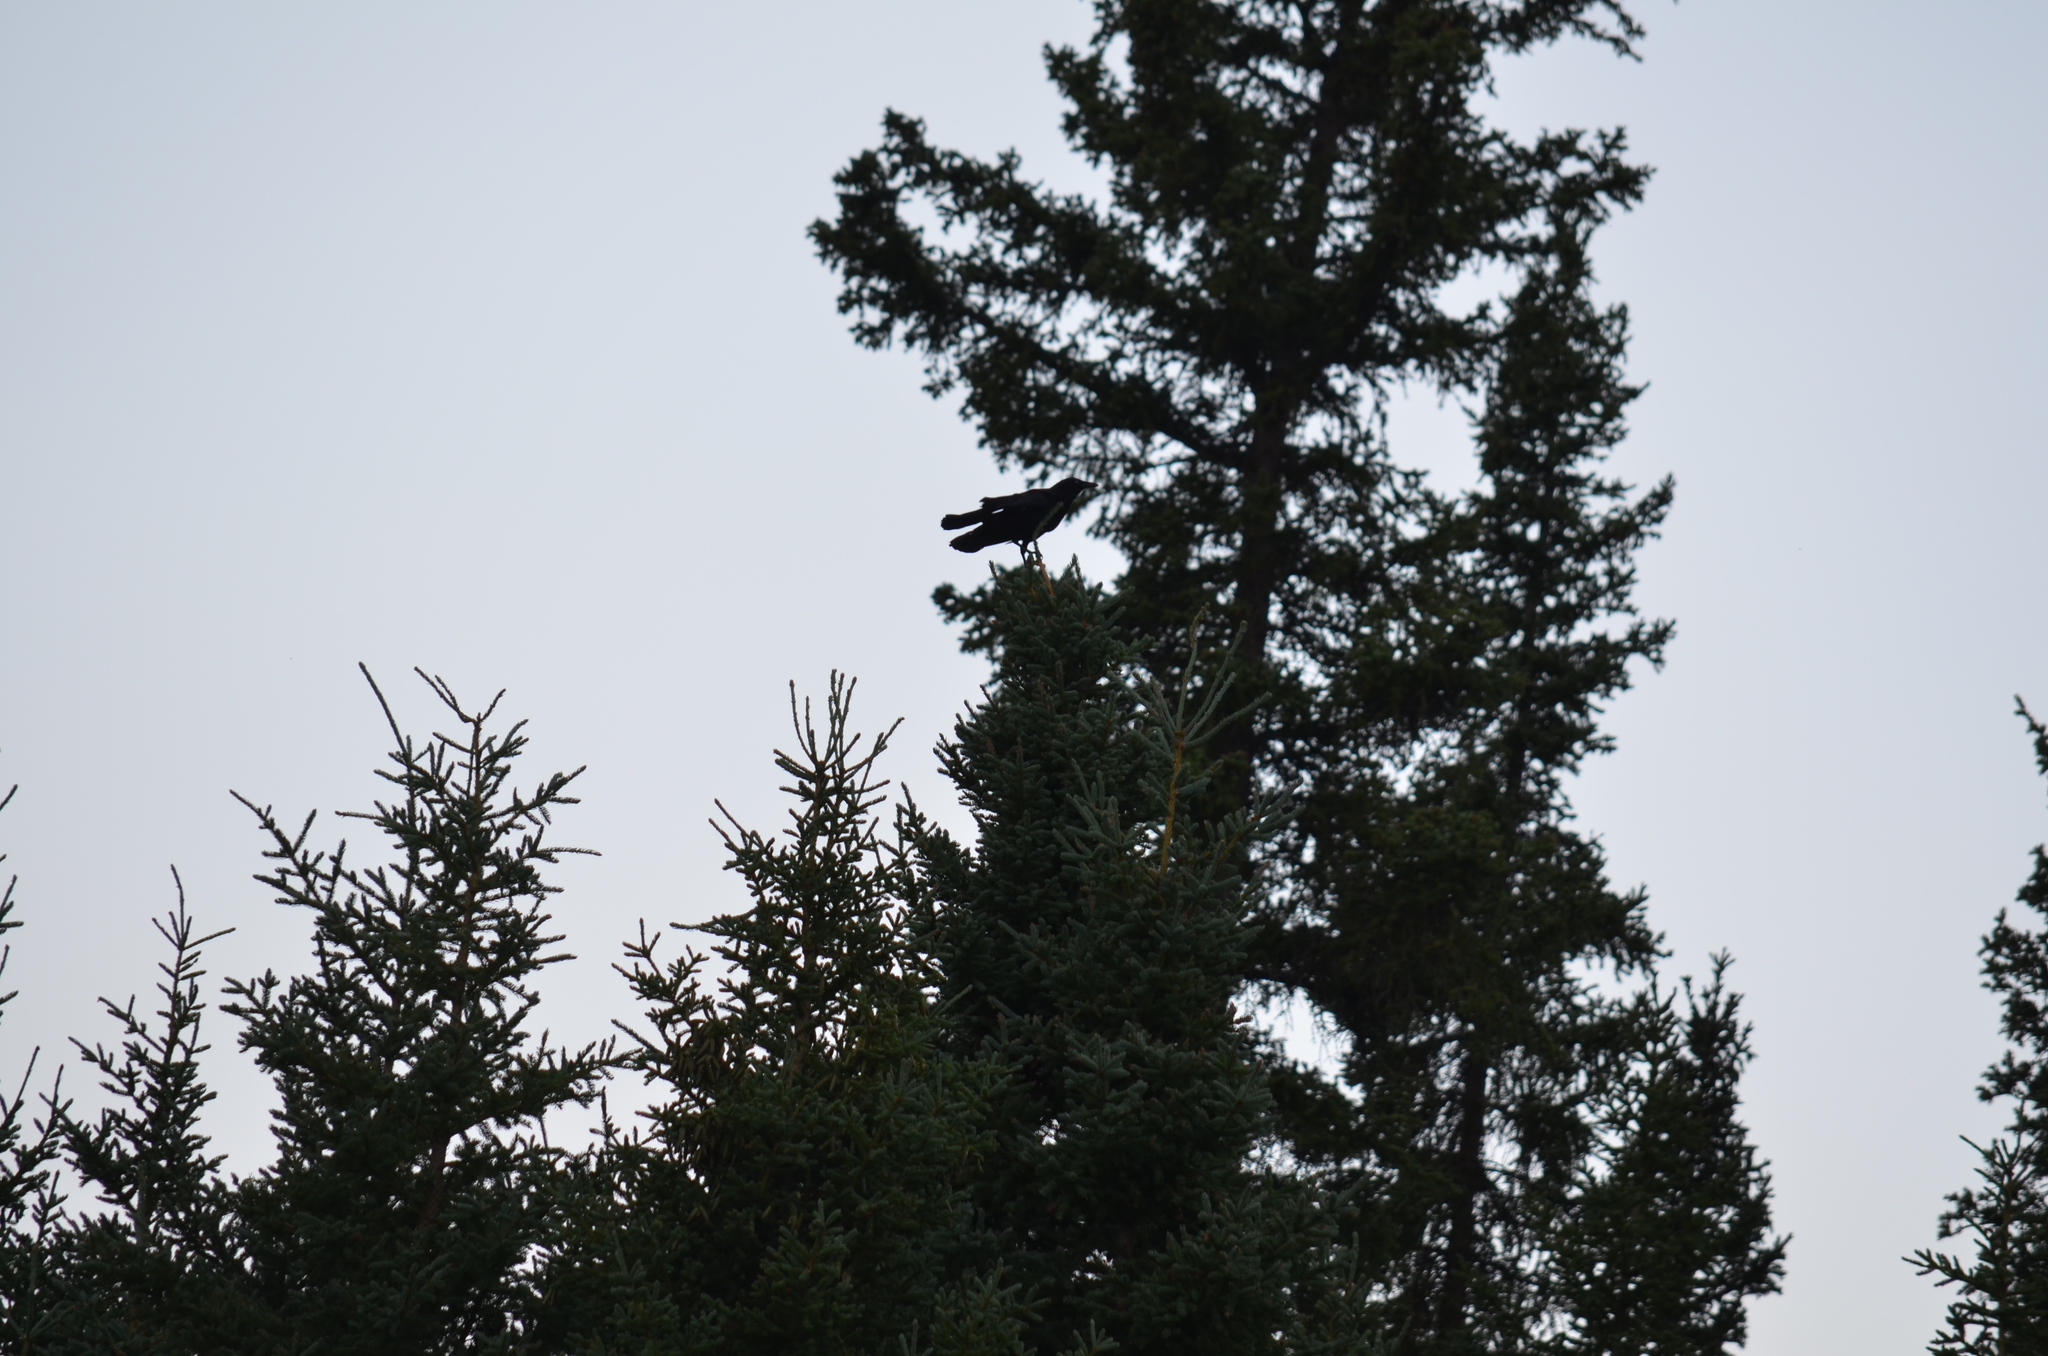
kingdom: Animalia
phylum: Chordata
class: Aves
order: Passeriformes
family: Corvidae
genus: Corvus
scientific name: Corvus brachyrhynchos
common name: American crow
